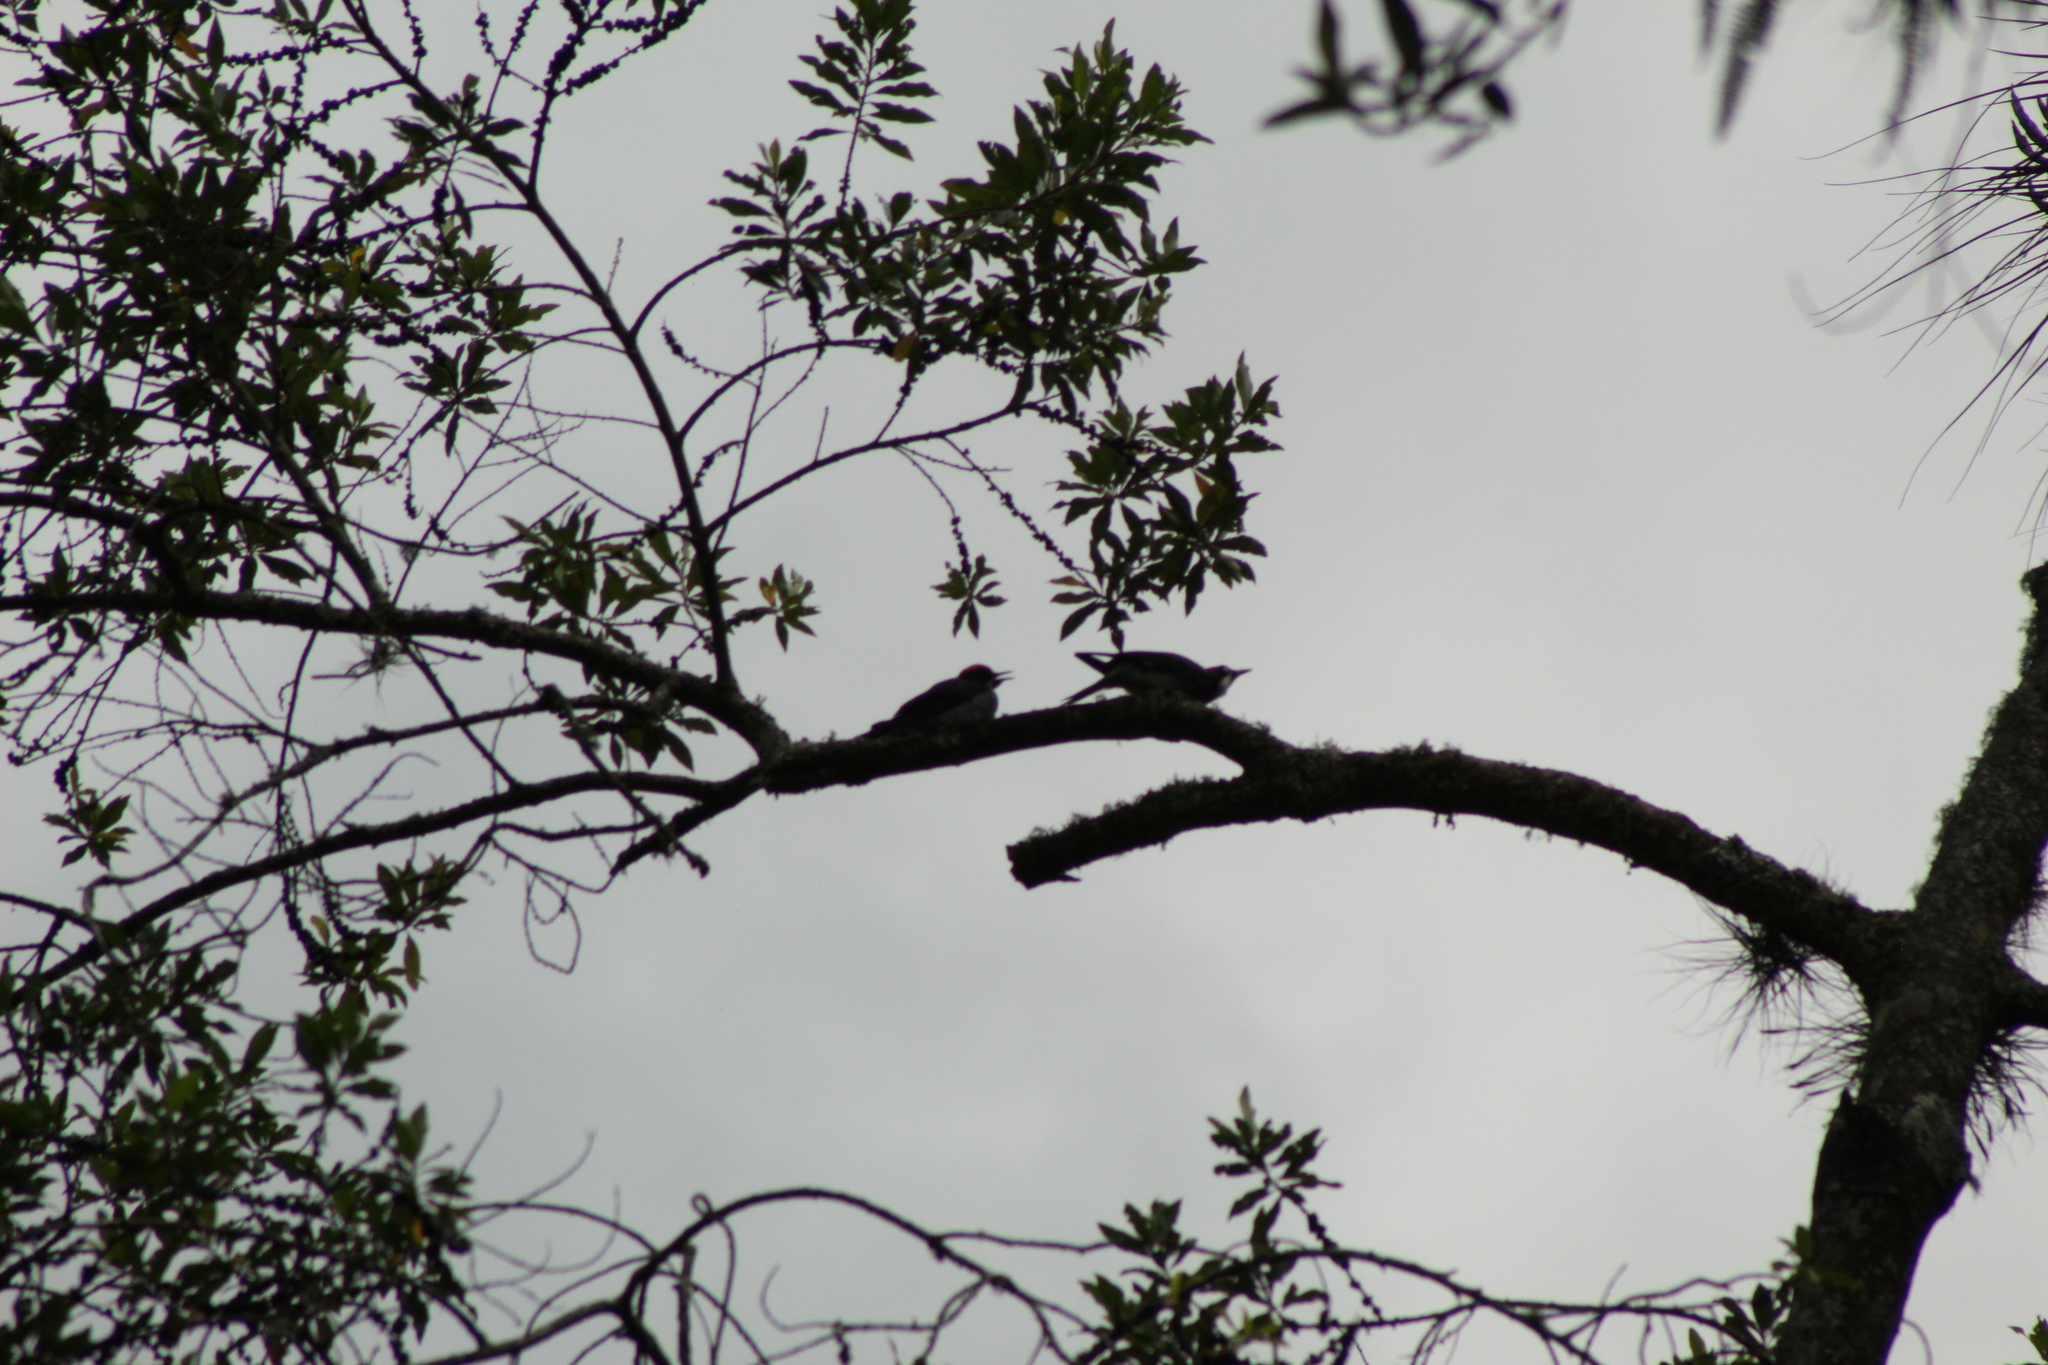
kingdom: Animalia
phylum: Chordata
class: Aves
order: Piciformes
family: Picidae
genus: Melanerpes
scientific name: Melanerpes formicivorus
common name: Acorn woodpecker
